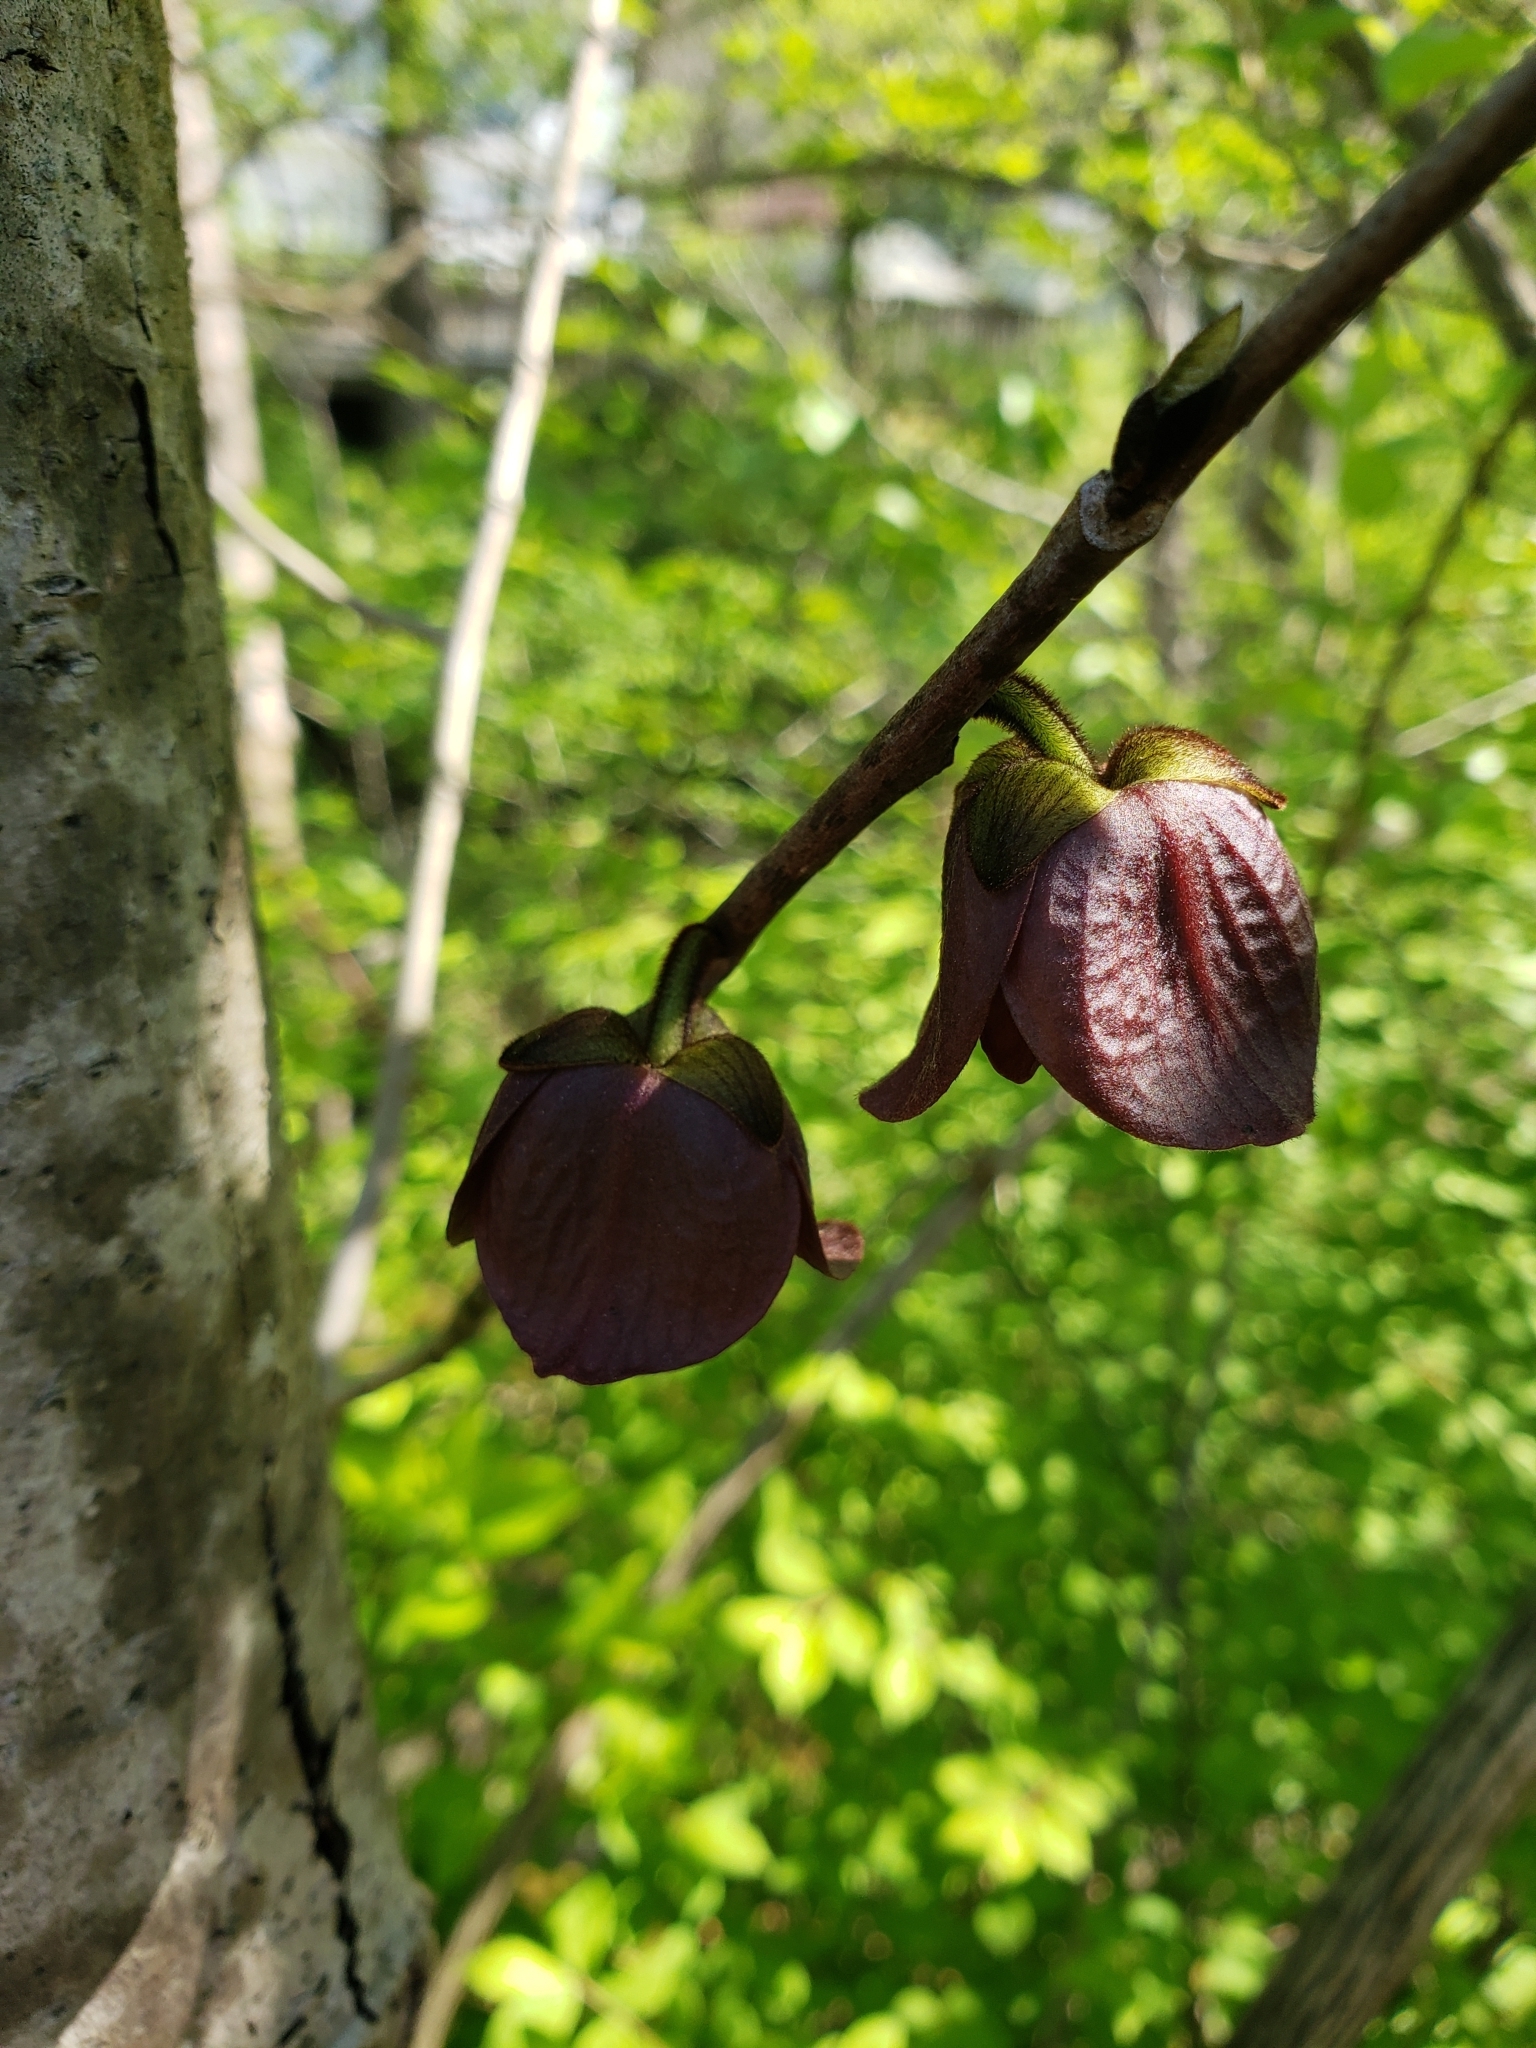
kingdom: Plantae
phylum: Tracheophyta
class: Magnoliopsida
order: Magnoliales
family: Annonaceae
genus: Asimina
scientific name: Asimina triloba
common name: Dog-banana
